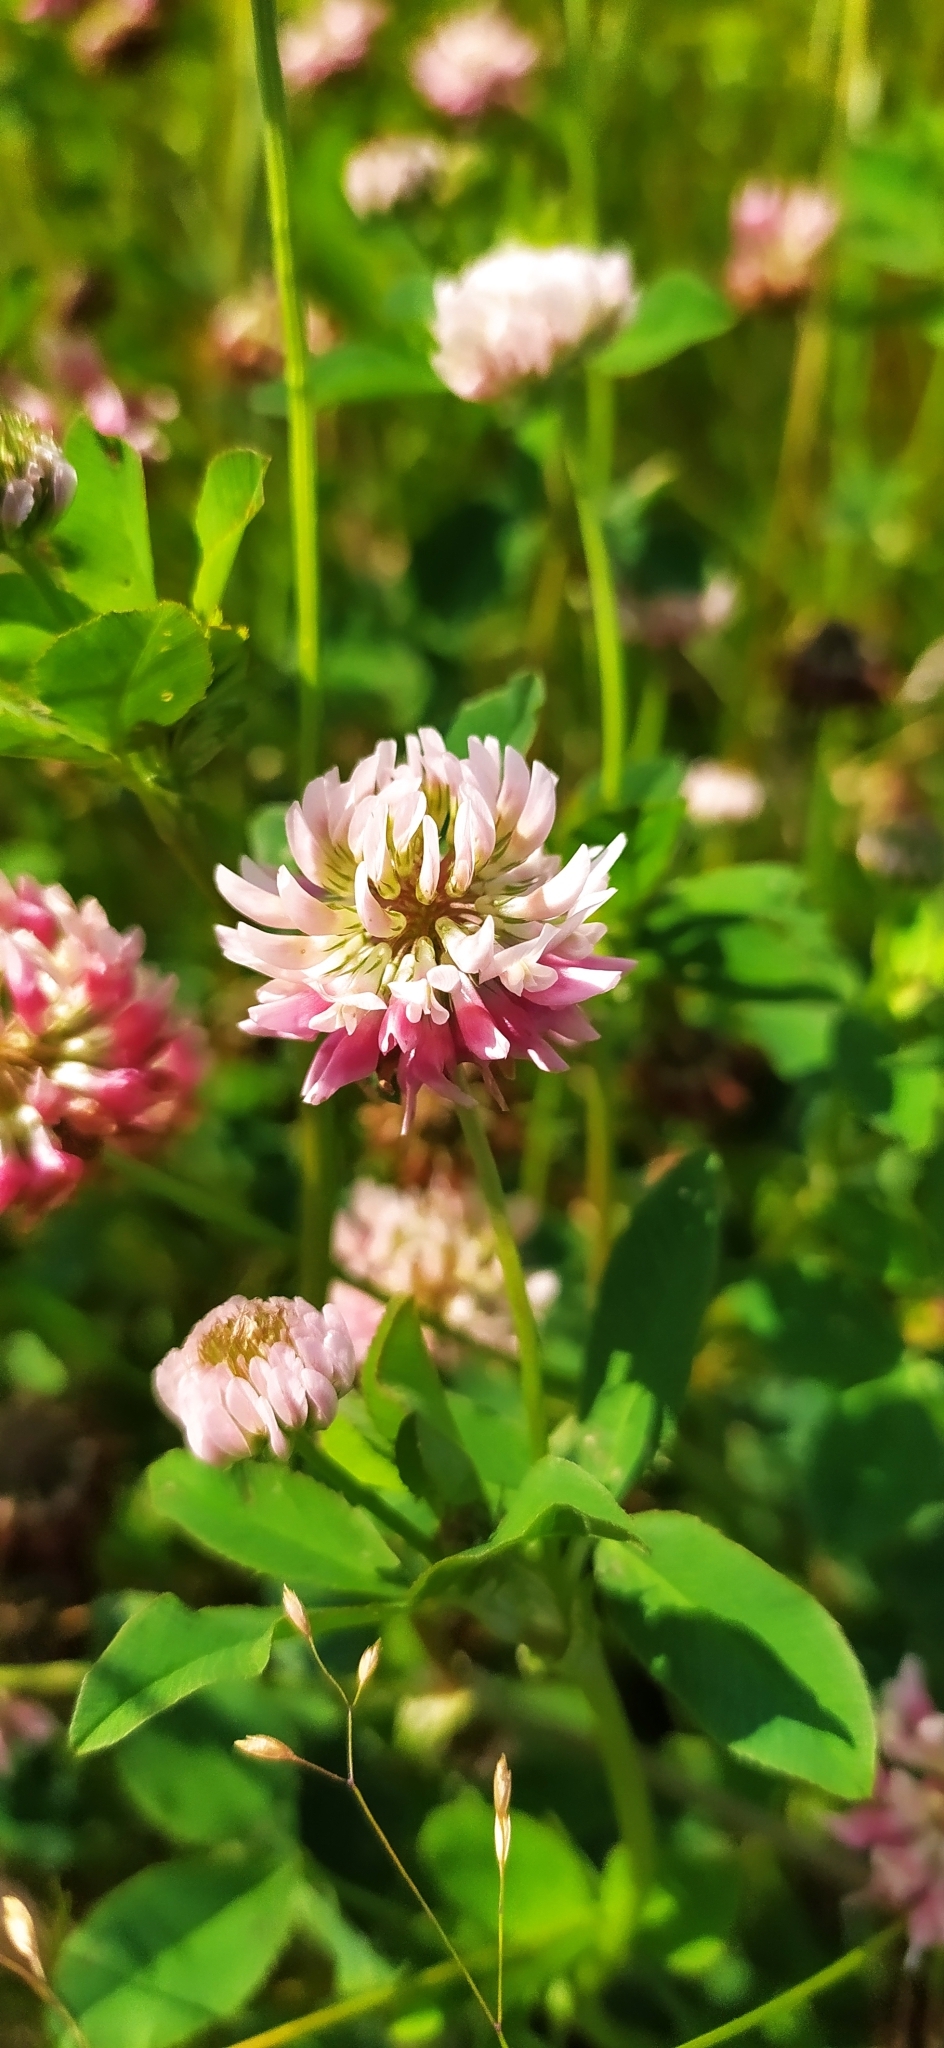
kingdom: Plantae
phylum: Tracheophyta
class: Magnoliopsida
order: Fabales
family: Fabaceae
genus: Trifolium
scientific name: Trifolium hybridum
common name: Alsike clover
